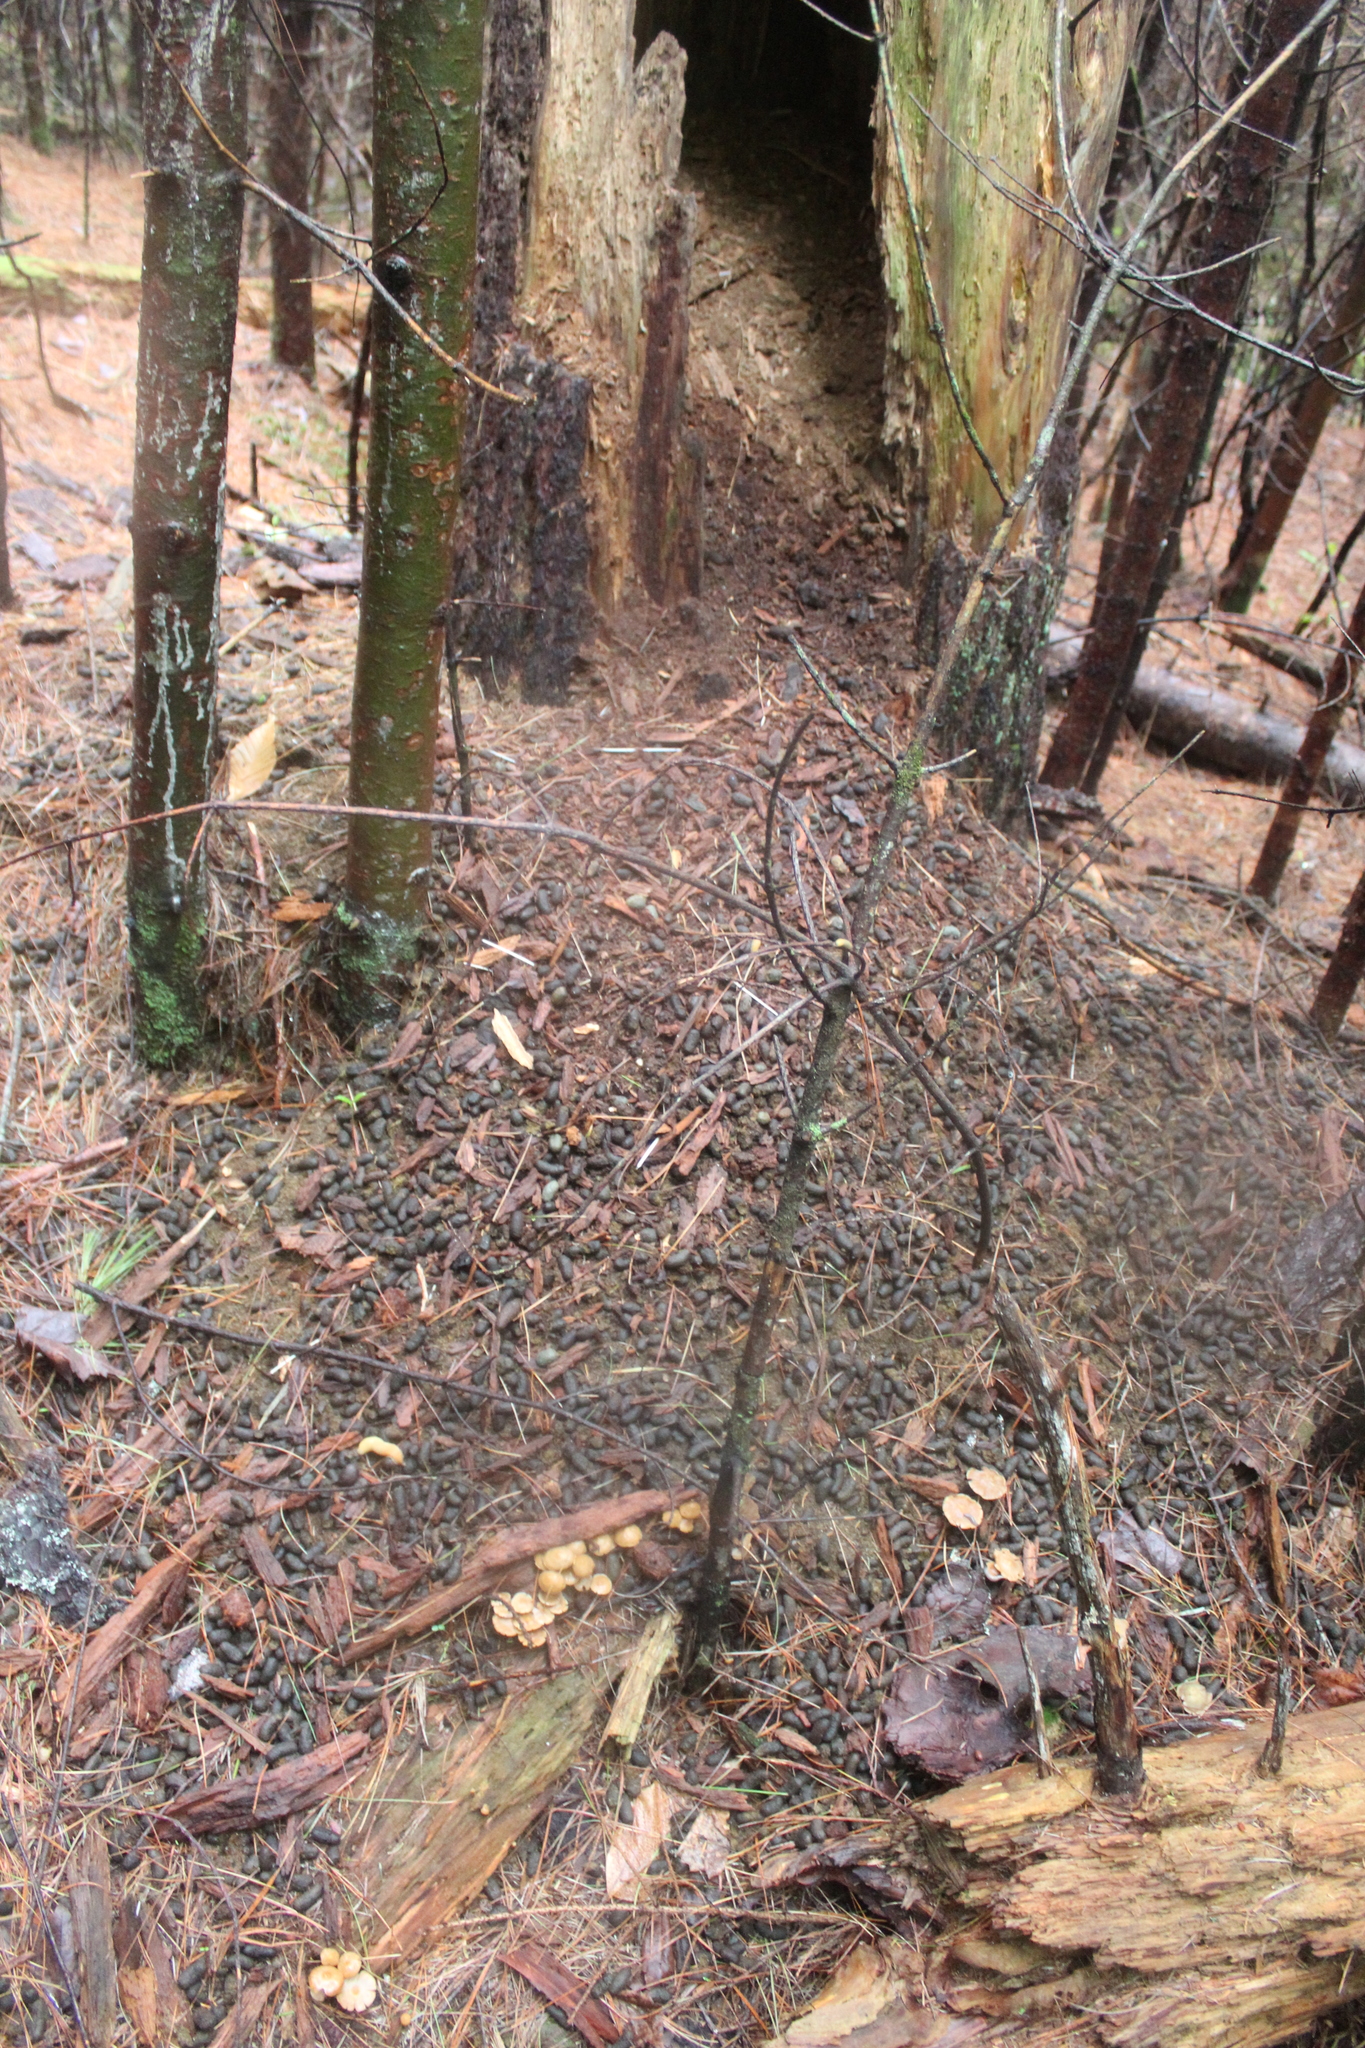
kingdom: Animalia
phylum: Chordata
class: Mammalia
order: Rodentia
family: Erethizontidae
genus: Erethizon
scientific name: Erethizon dorsatus
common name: North american porcupine
